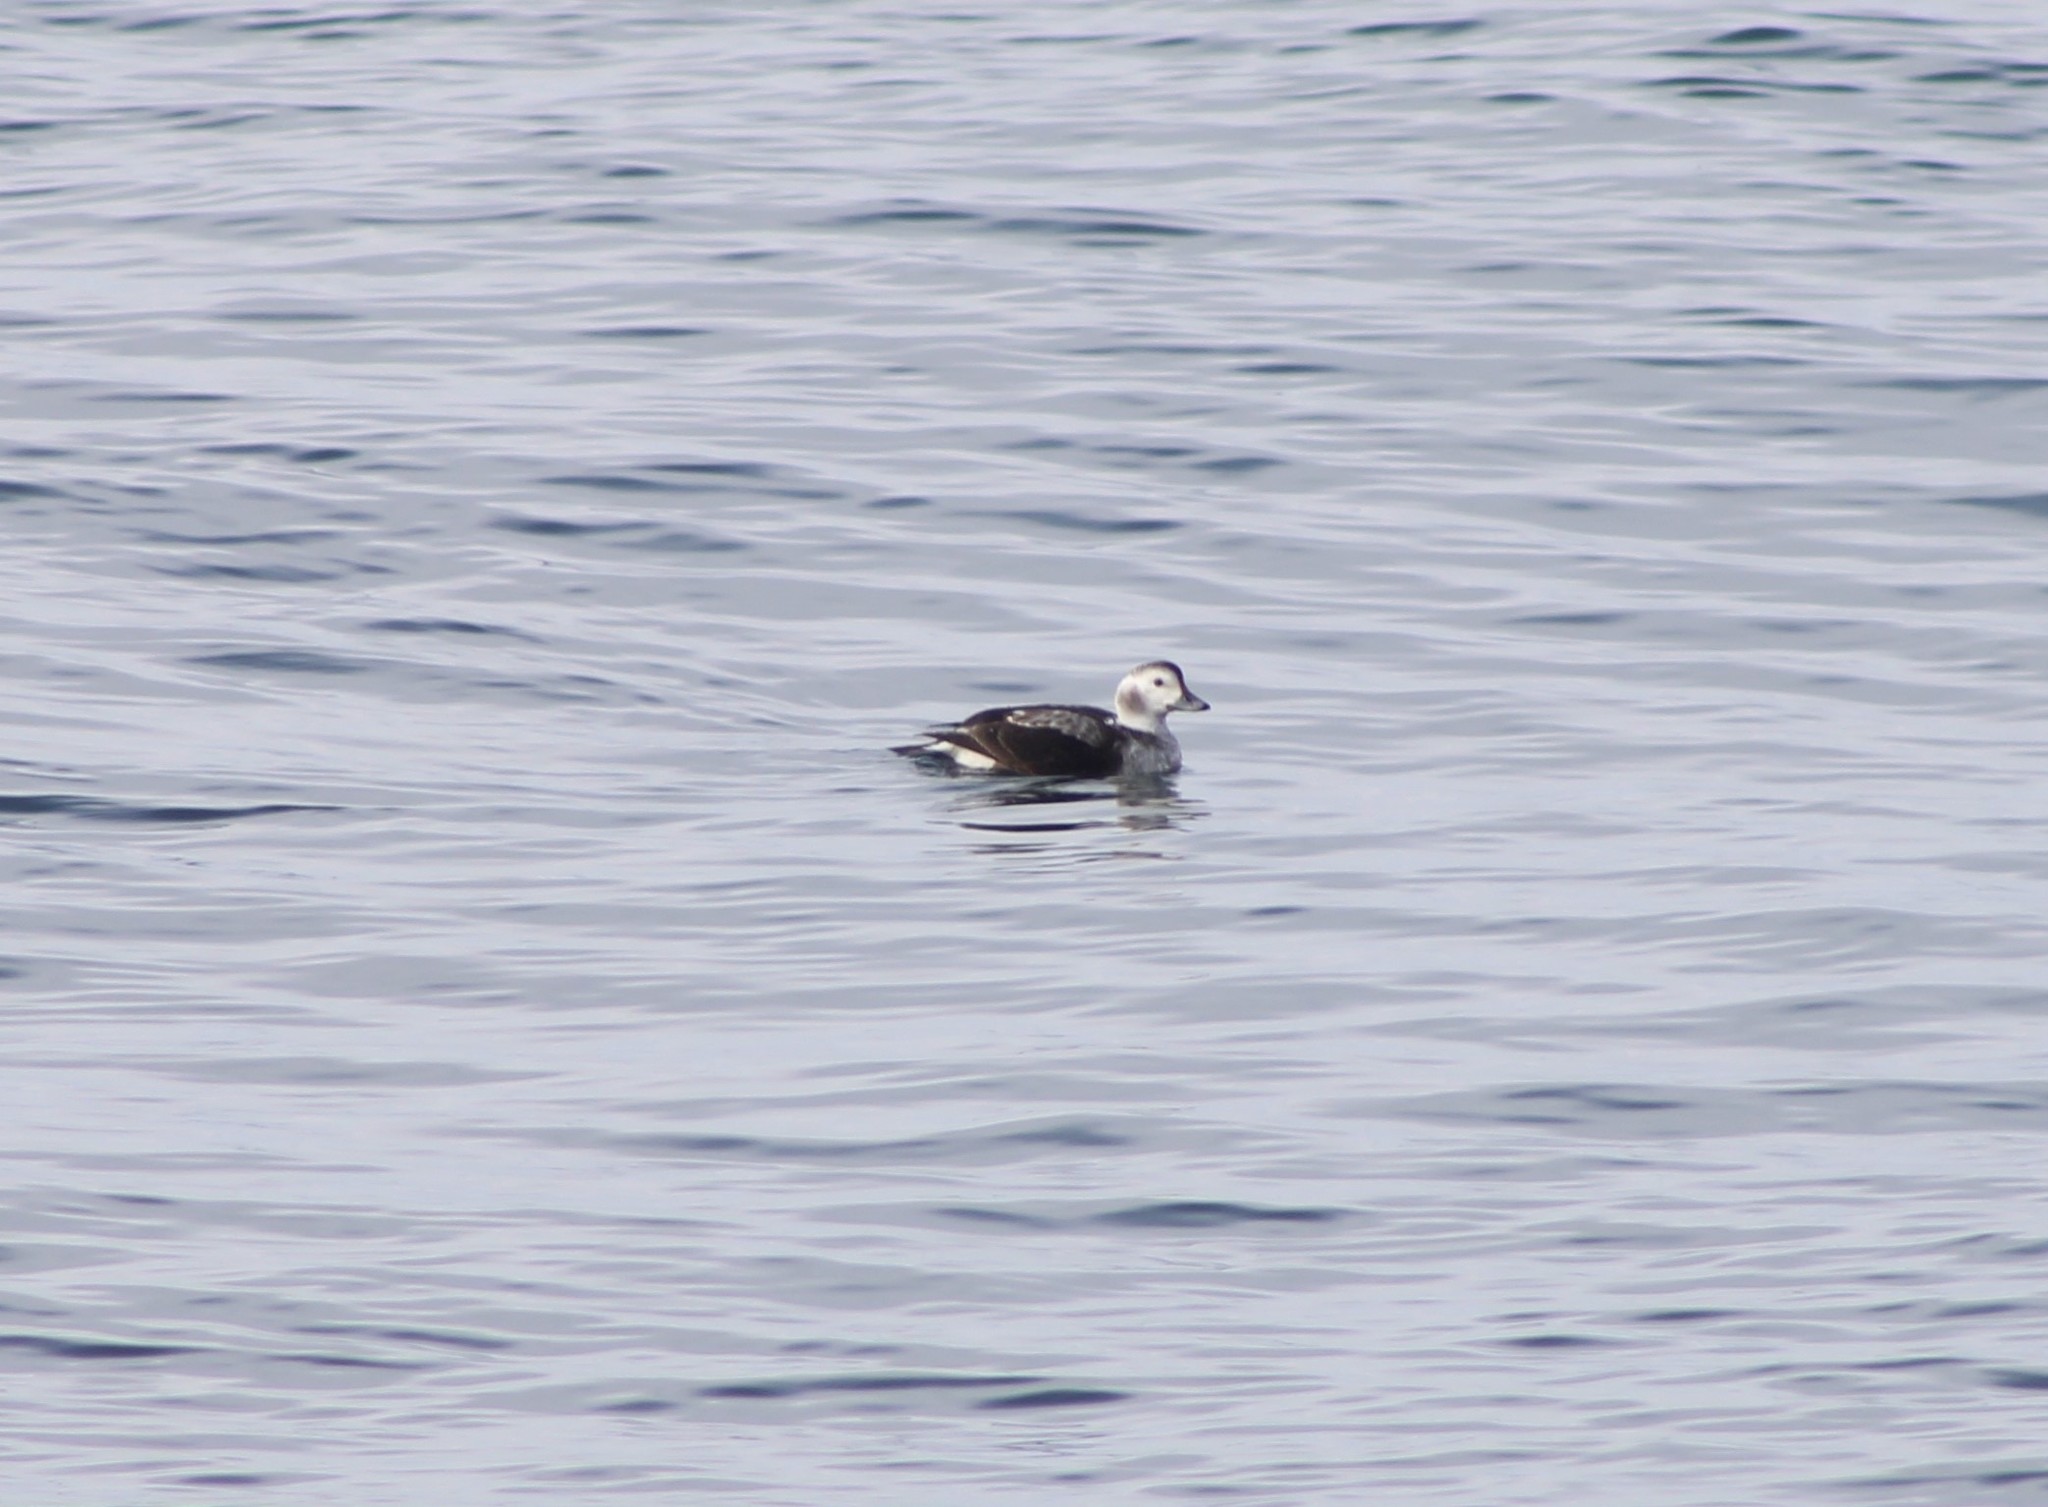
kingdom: Animalia
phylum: Chordata
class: Aves
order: Anseriformes
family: Anatidae
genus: Clangula
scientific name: Clangula hyemalis
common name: Long-tailed duck
